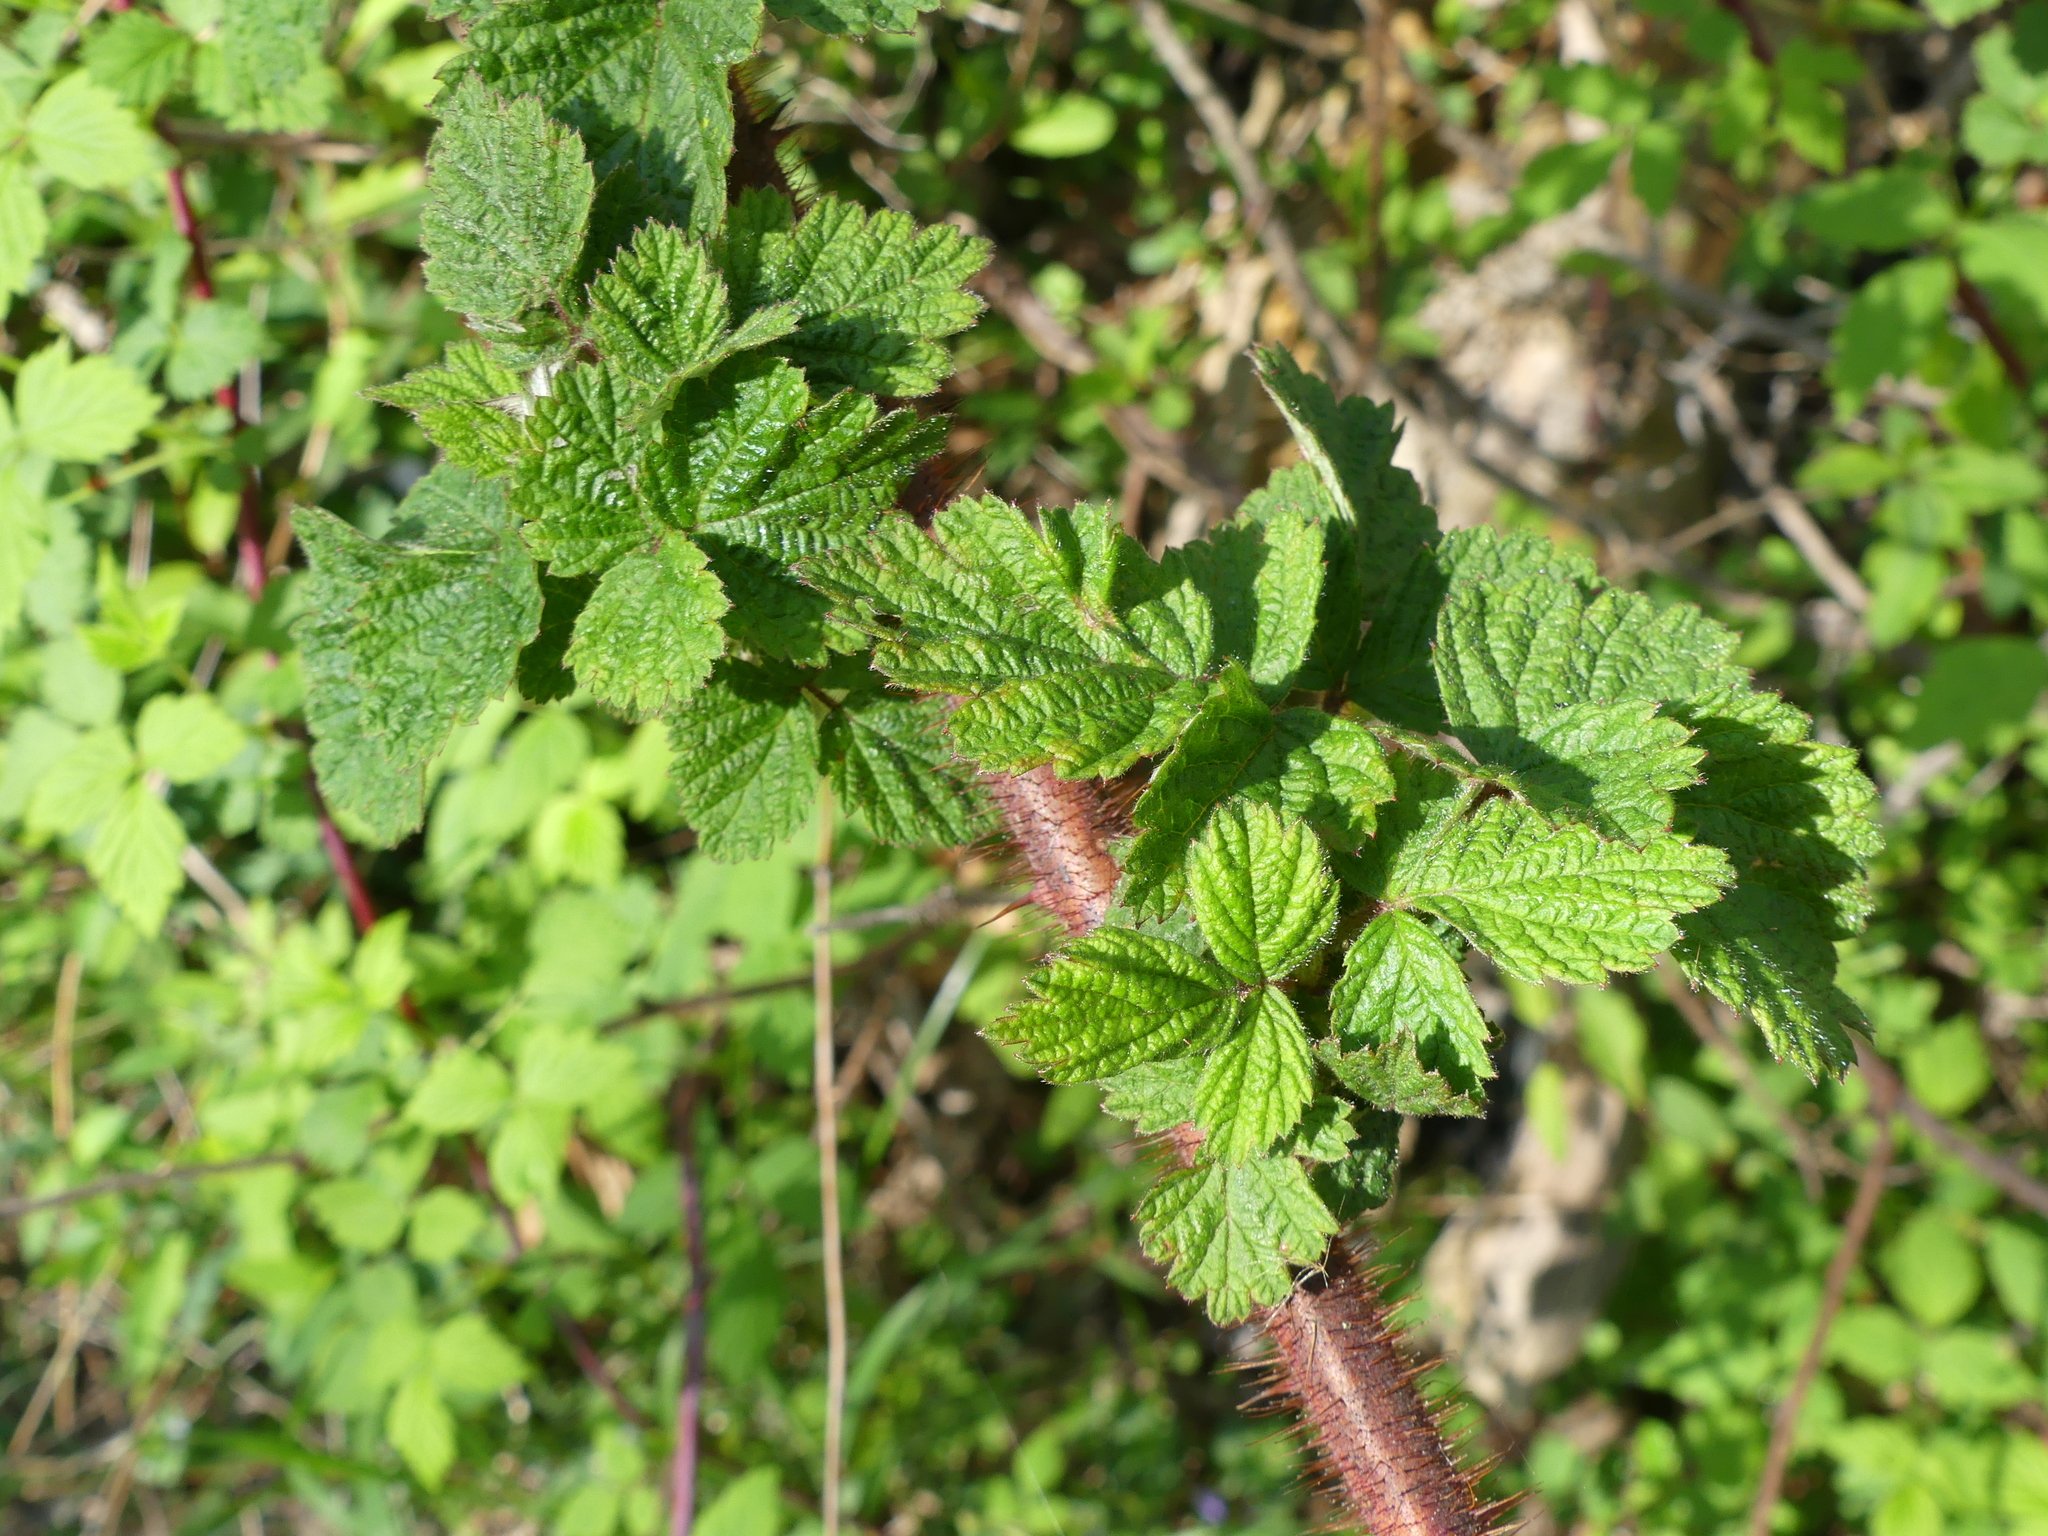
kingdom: Plantae
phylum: Tracheophyta
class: Magnoliopsida
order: Rosales
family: Rosaceae
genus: Rubus
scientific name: Rubus phoenicolasius
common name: Japanese wineberry
